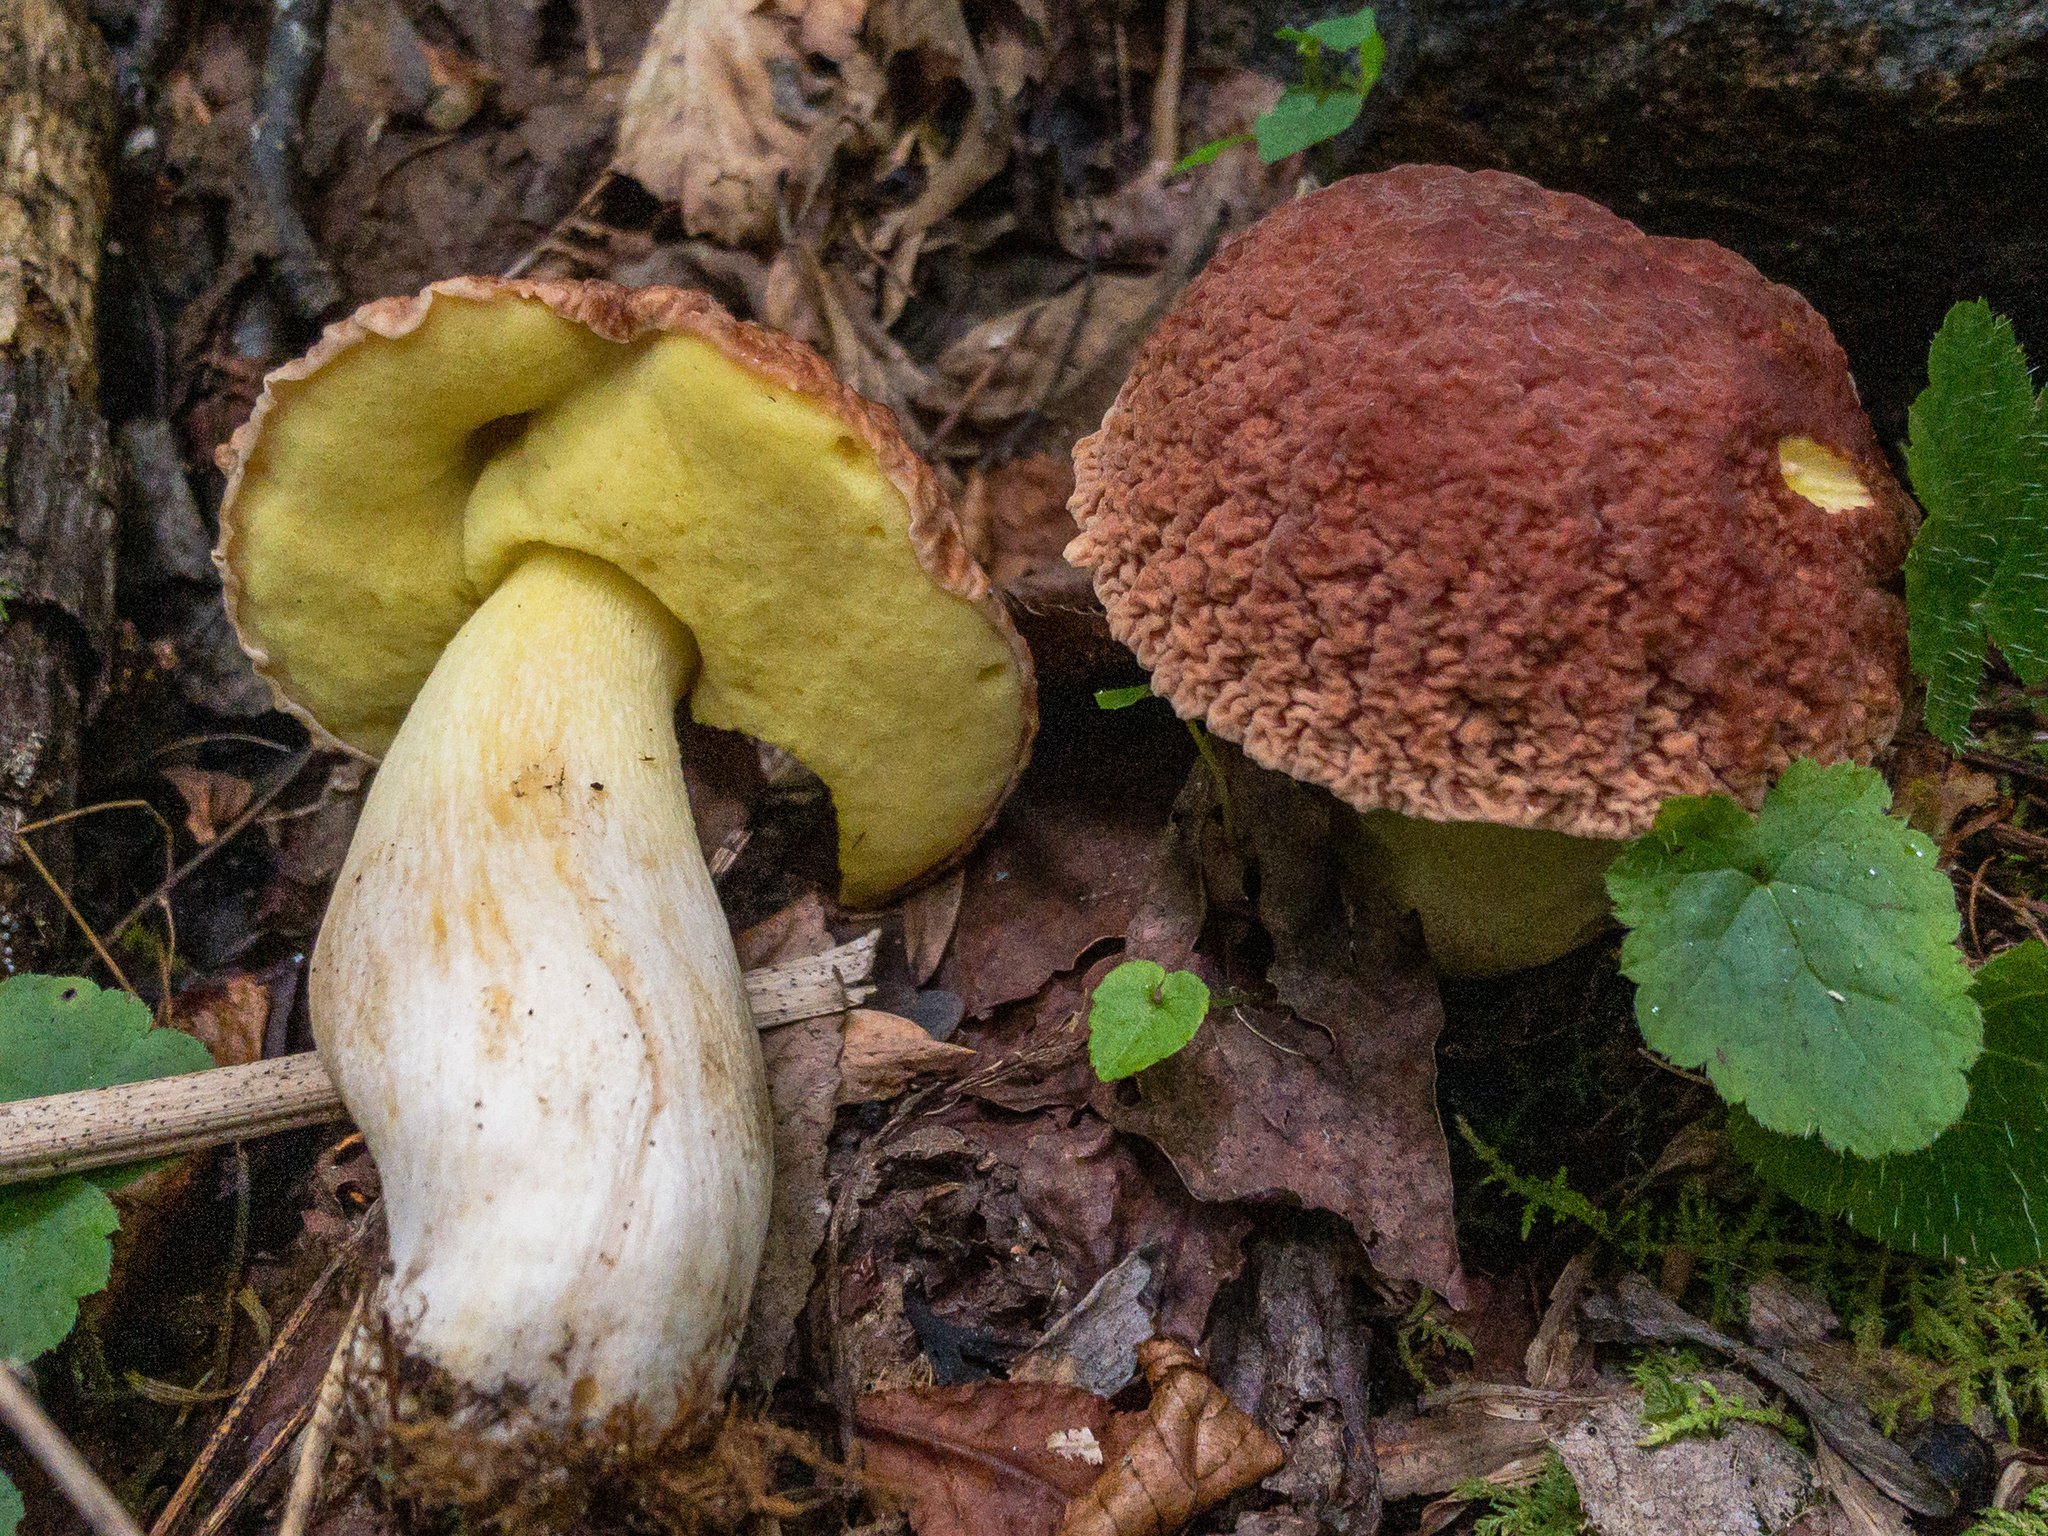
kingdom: Fungi
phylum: Basidiomycota
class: Agaricomycetes
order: Boletales
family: Boletaceae
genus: Hemileccinum
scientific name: Hemileccinum hortonii
